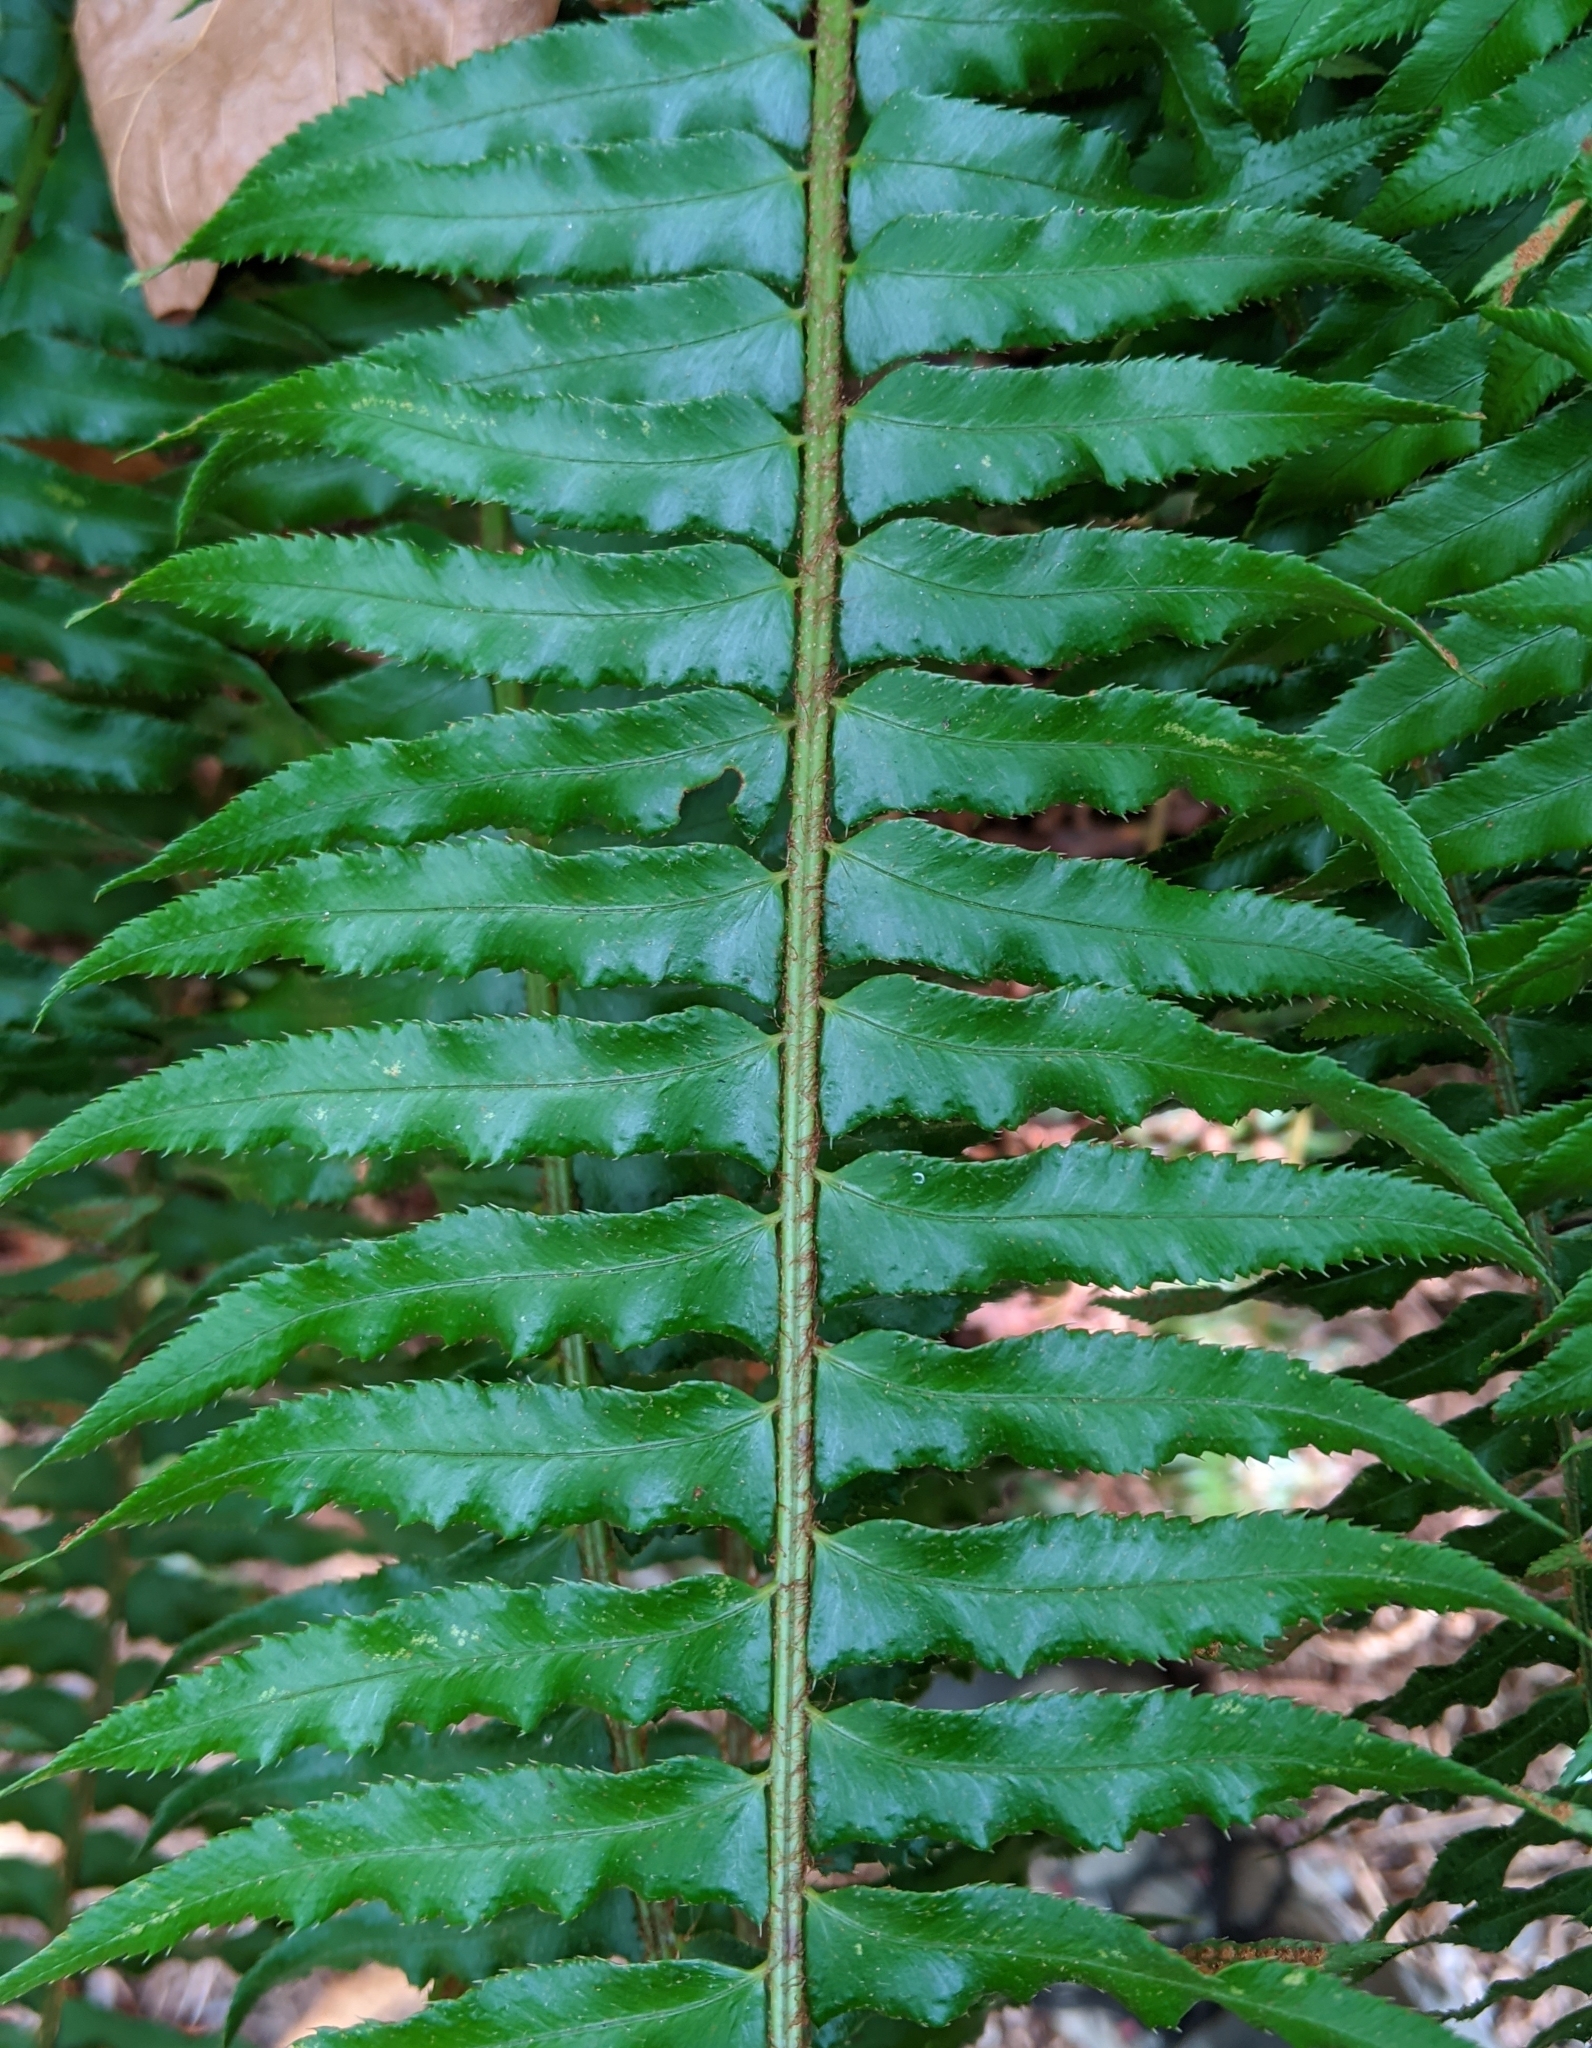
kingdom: Plantae
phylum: Tracheophyta
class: Polypodiopsida
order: Polypodiales
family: Dryopteridaceae
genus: Polystichum
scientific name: Polystichum munitum
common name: Western sword-fern
